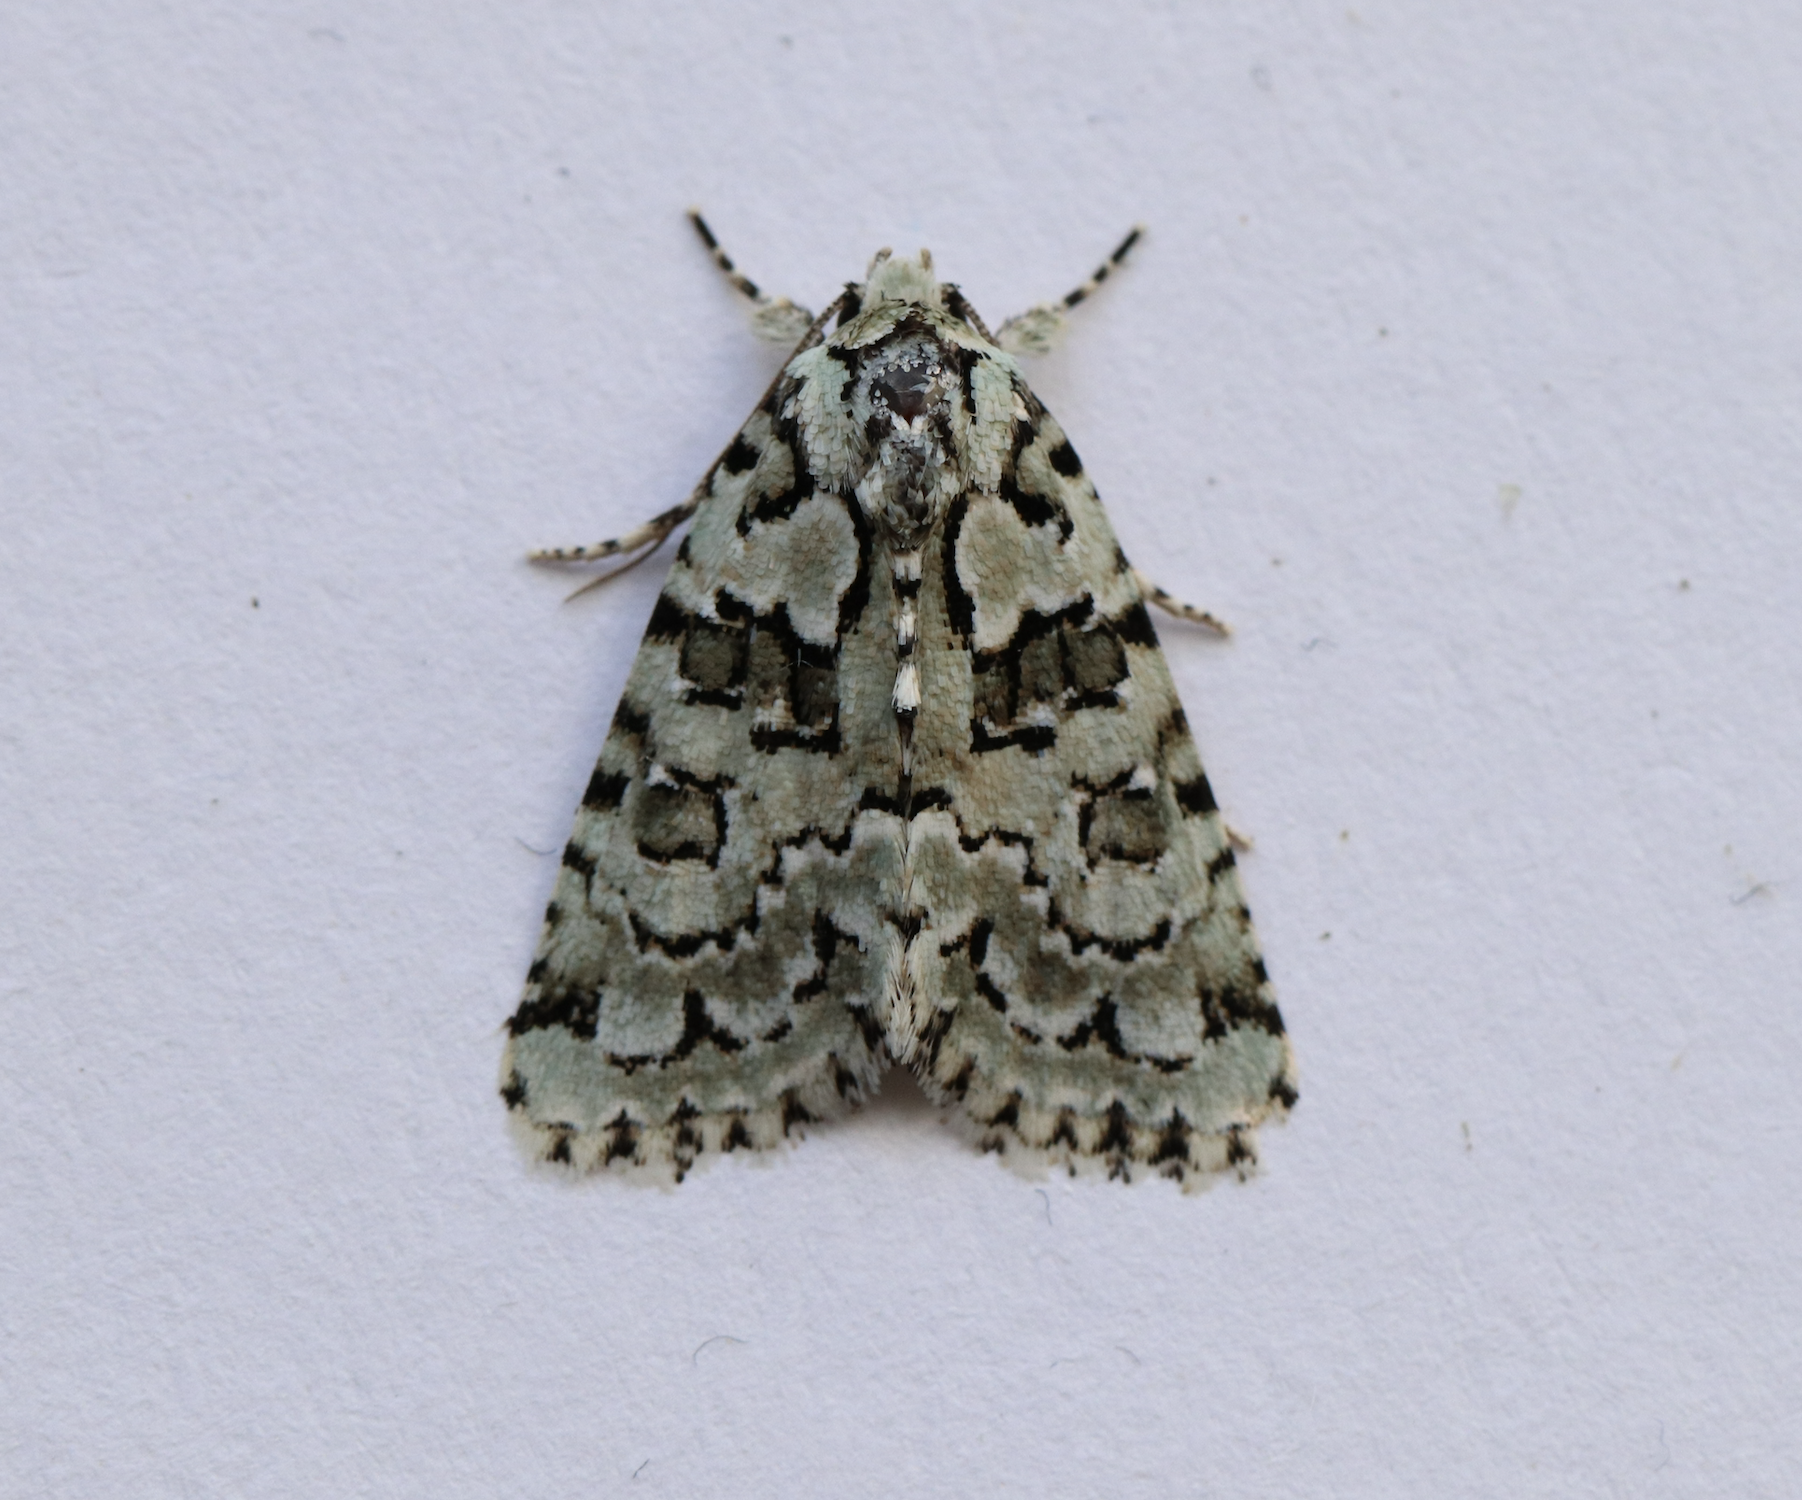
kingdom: Animalia
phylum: Arthropoda
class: Insecta
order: Lepidoptera
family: Noctuidae
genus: Nyctobrya
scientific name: Nyctobrya muralis
